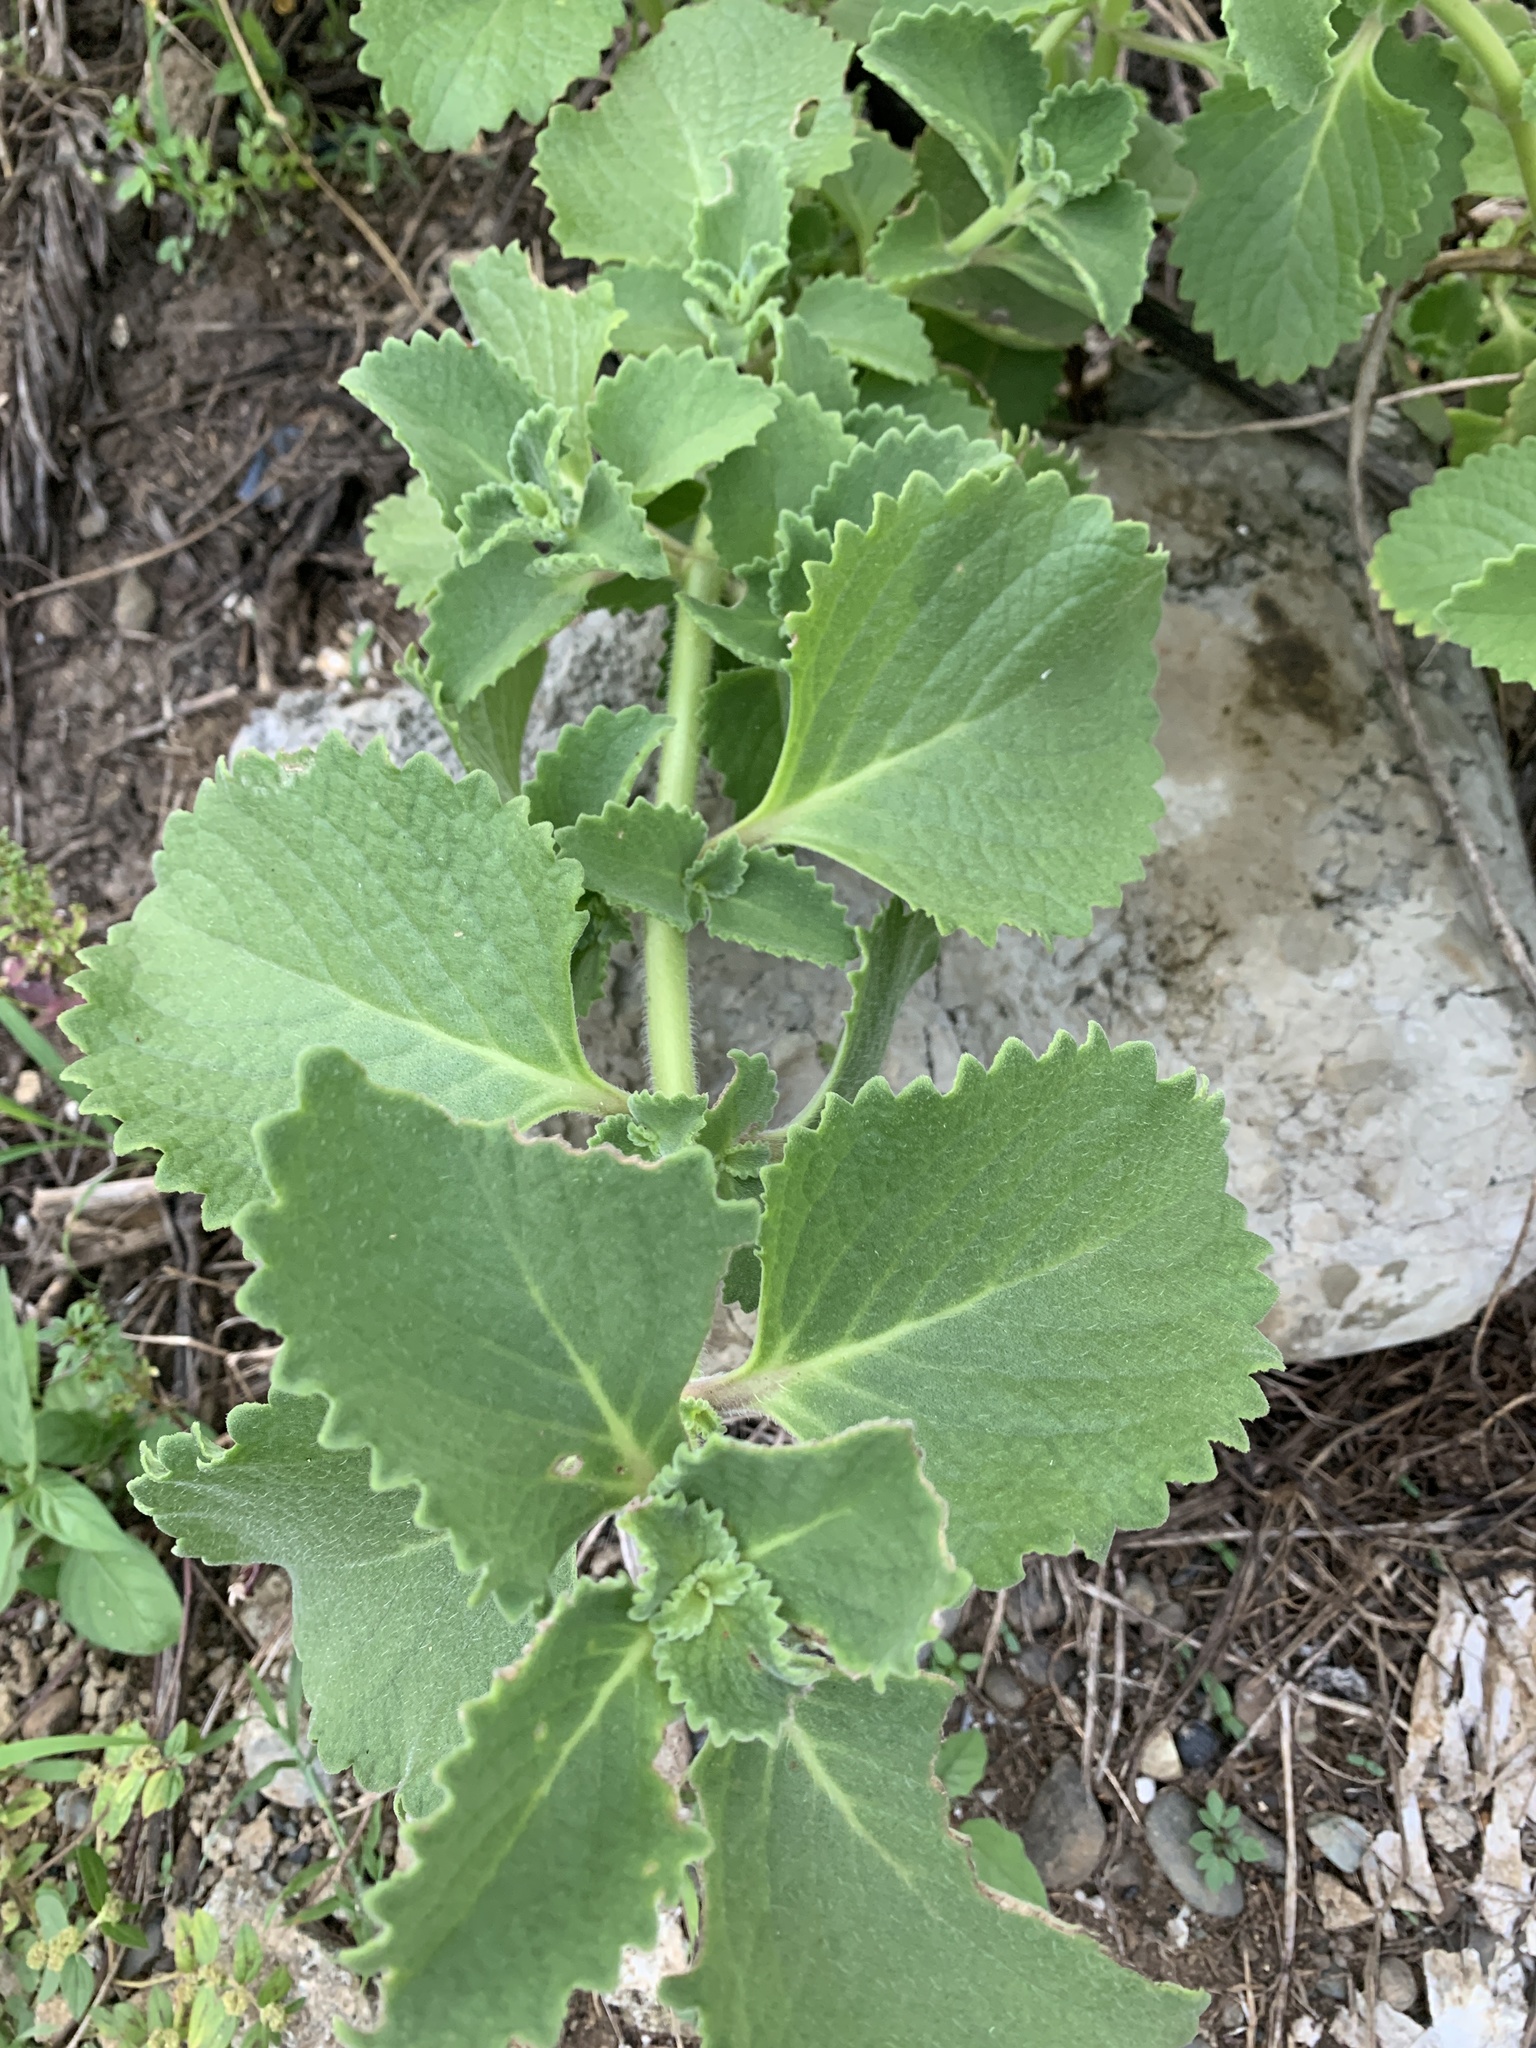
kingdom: Plantae
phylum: Tracheophyta
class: Magnoliopsida
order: Lamiales
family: Lamiaceae
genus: Coleus
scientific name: Coleus amboinicus
